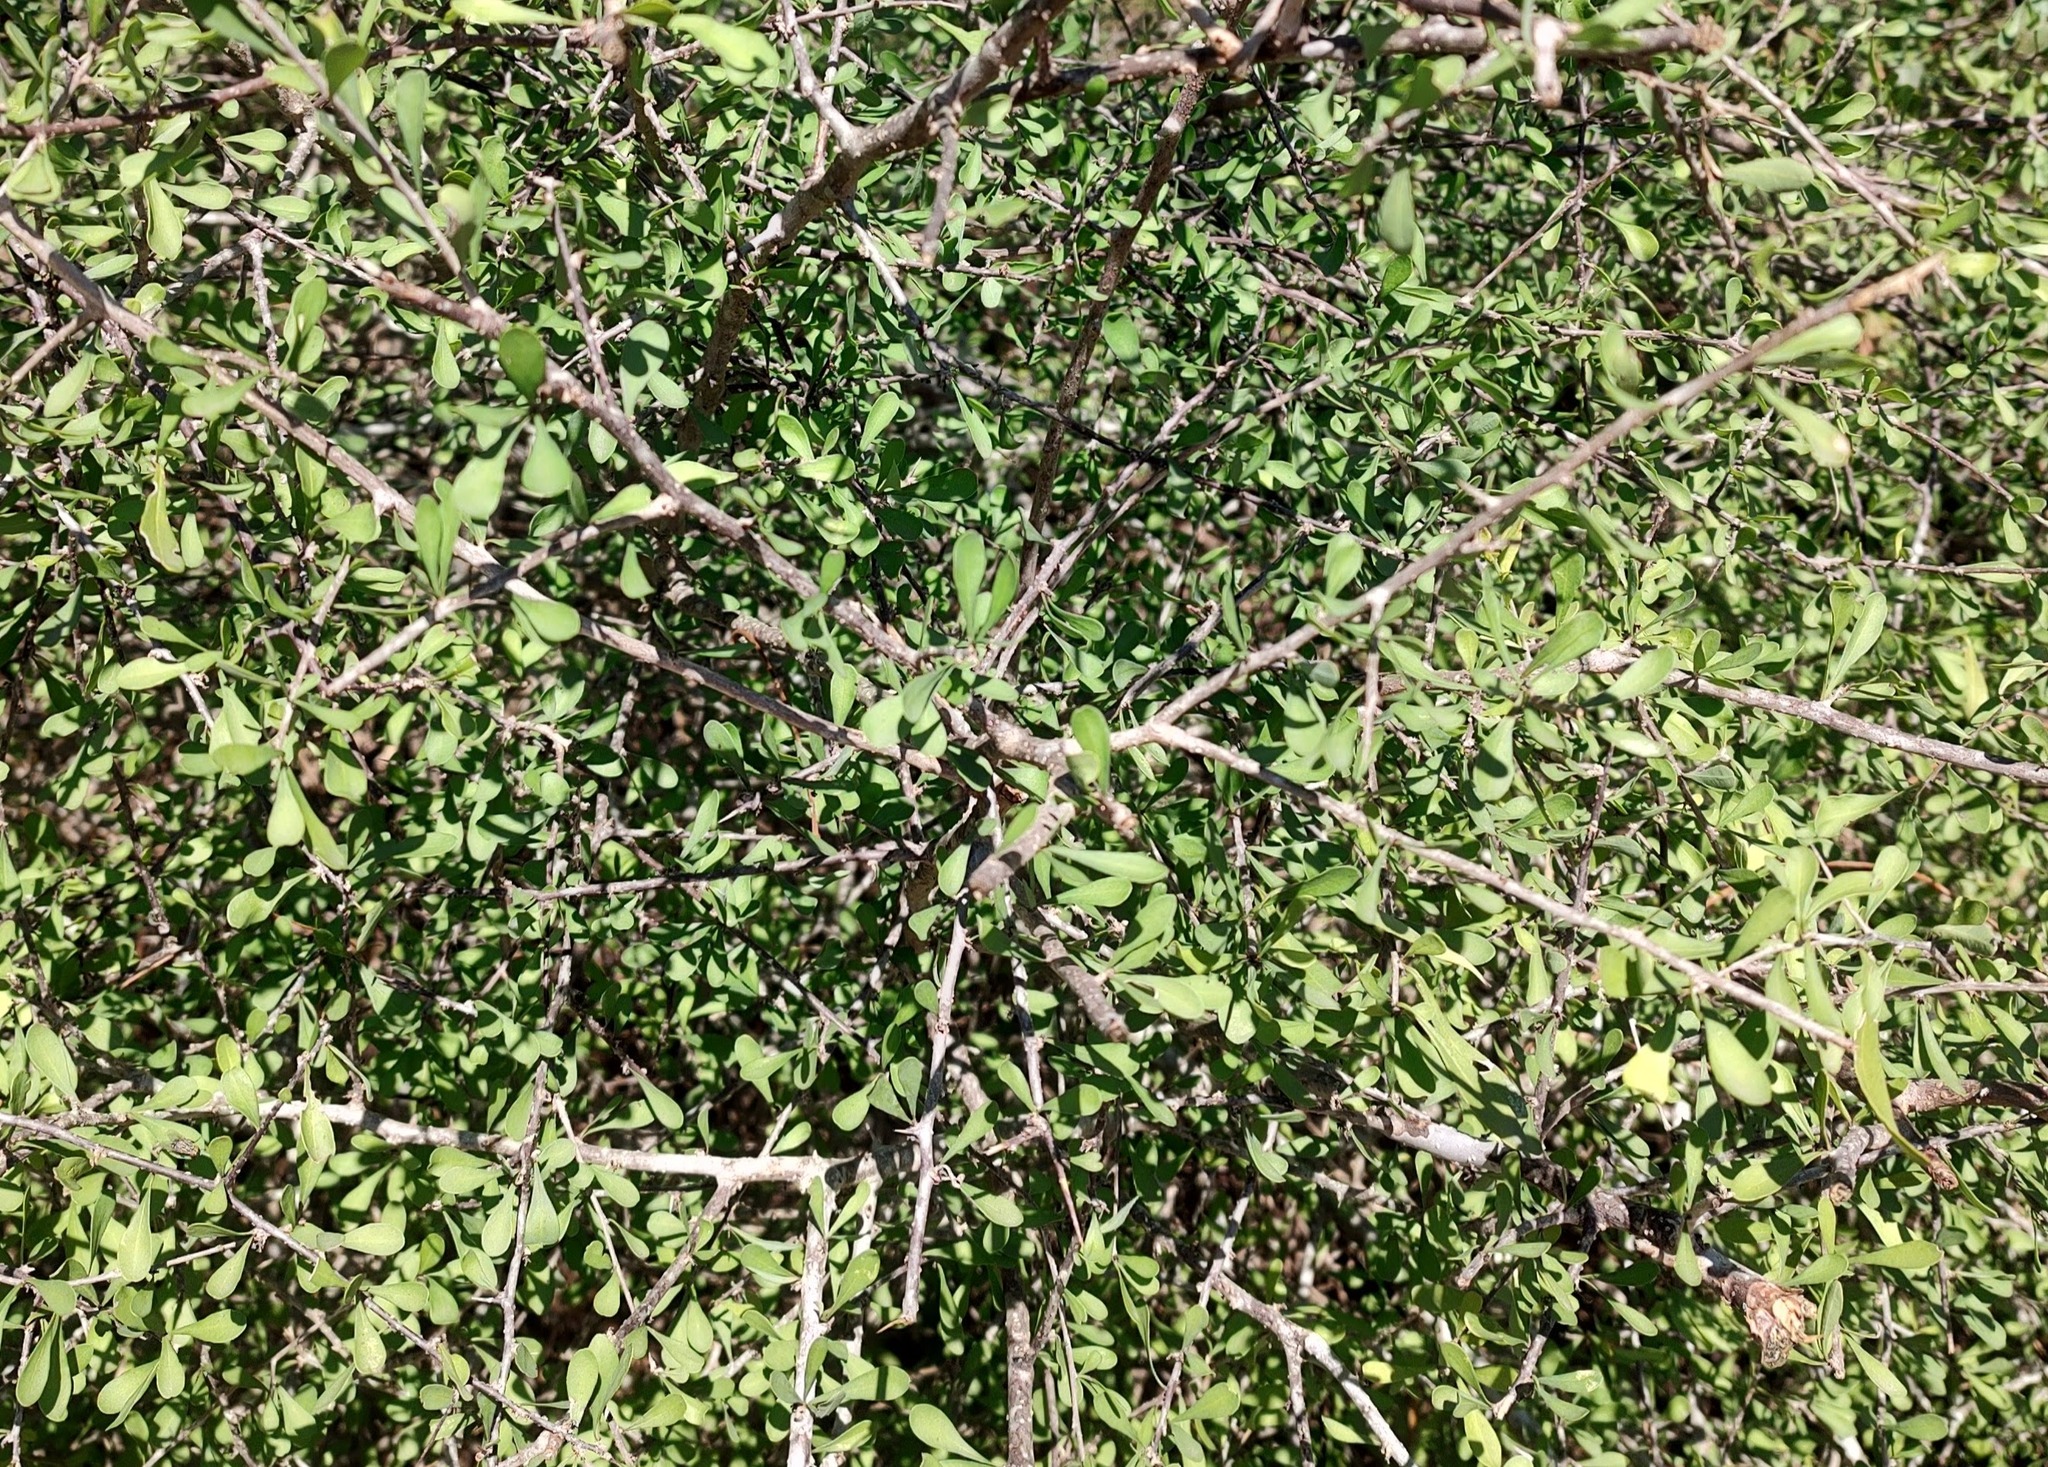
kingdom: Plantae
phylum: Tracheophyta
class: Magnoliopsida
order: Caryophyllales
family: Achatocarpaceae
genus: Phaulothamnus
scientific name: Phaulothamnus spinescens
